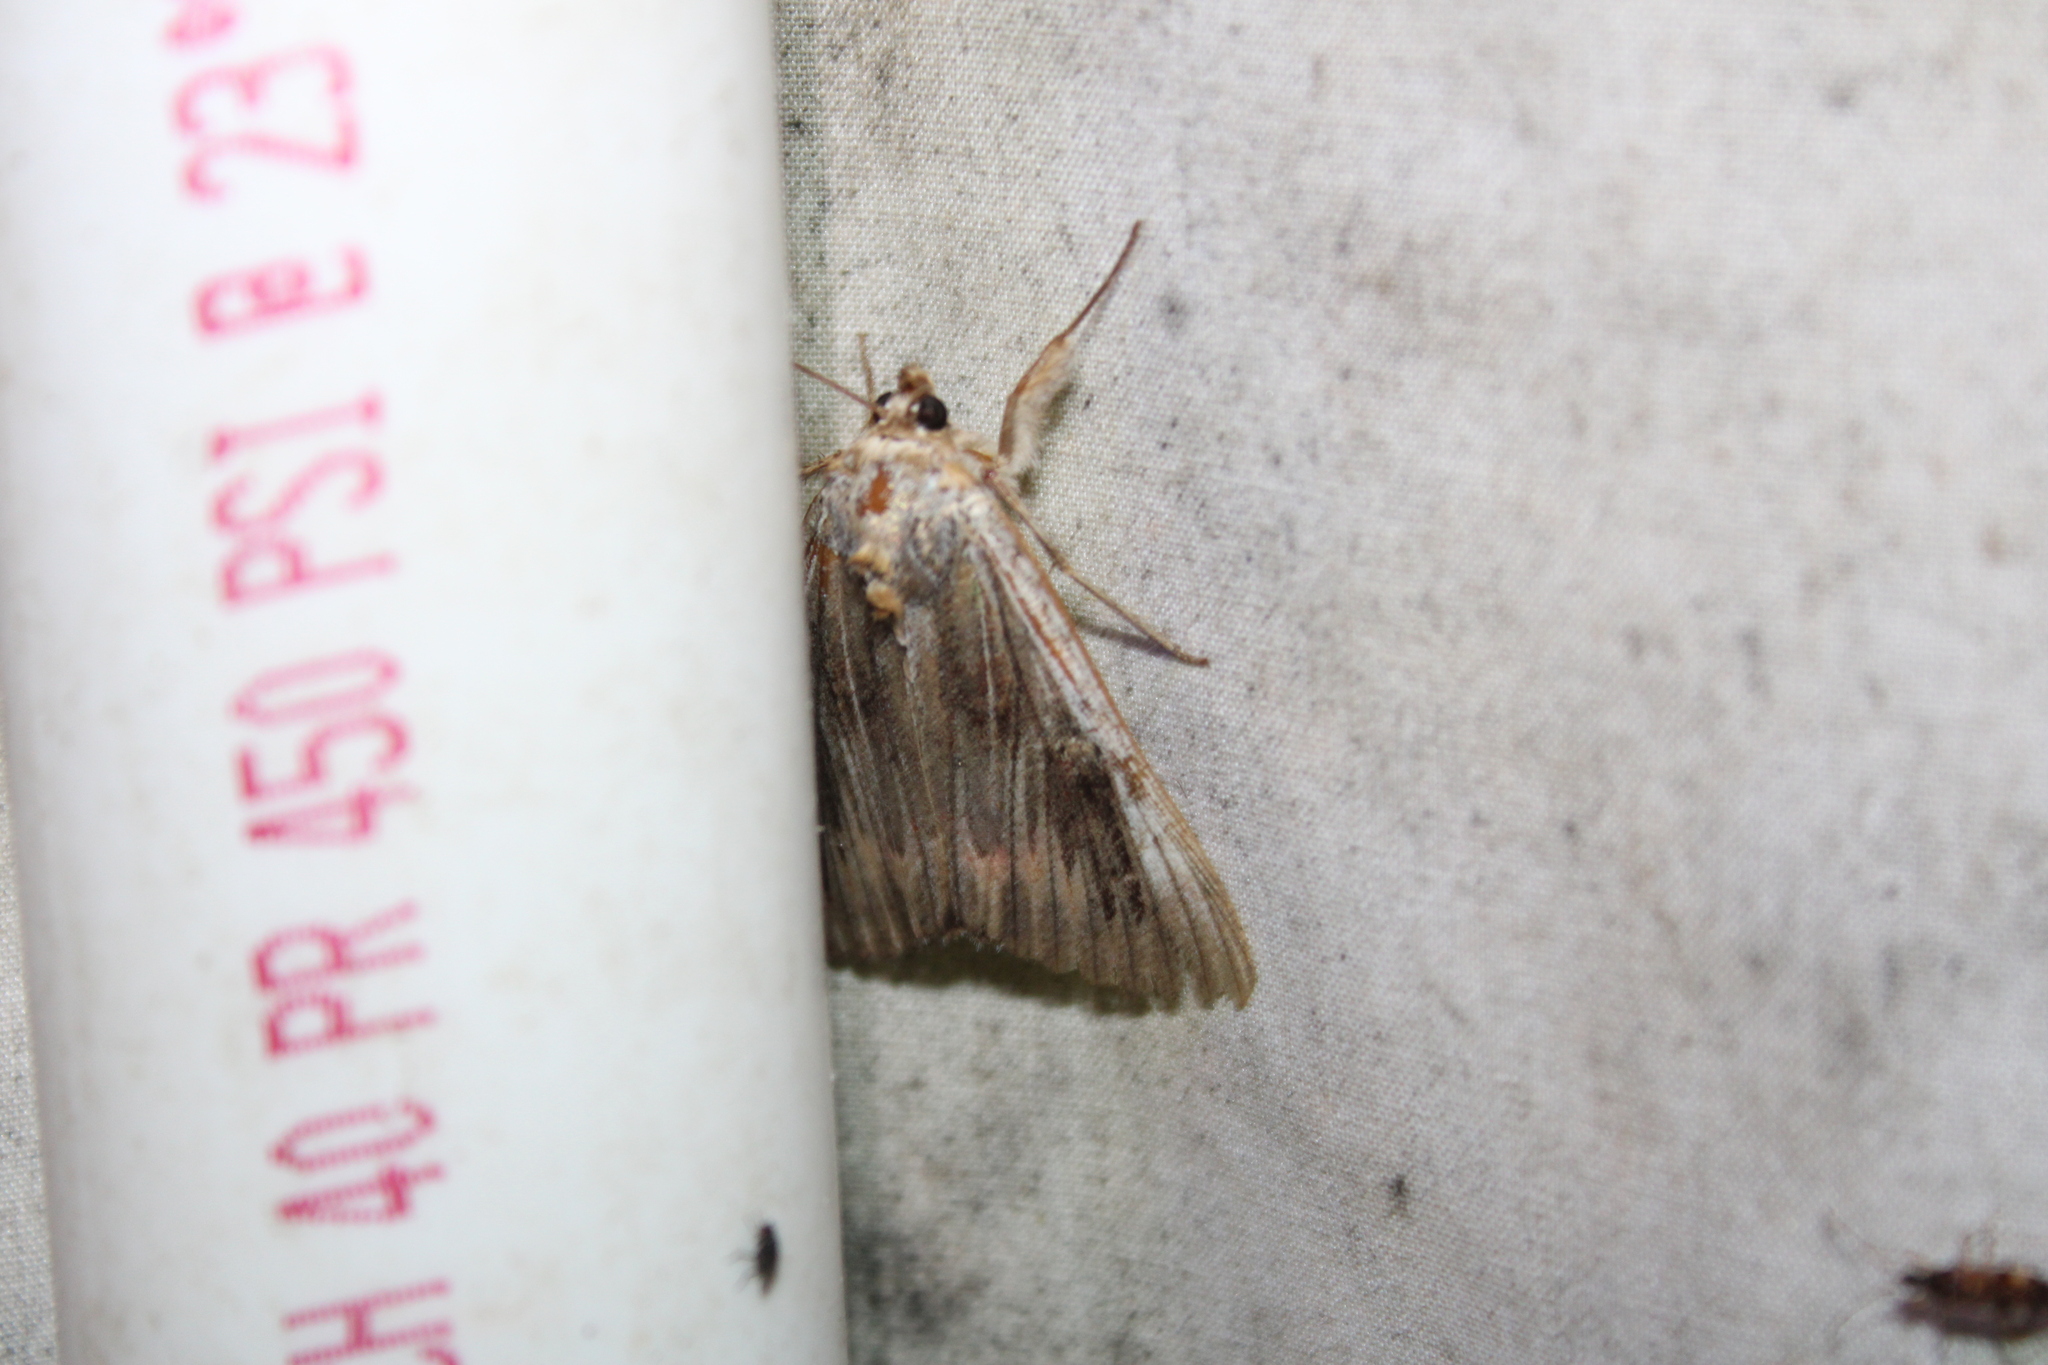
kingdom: Animalia
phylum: Arthropoda
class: Insecta
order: Lepidoptera
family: Erebidae
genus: Catocala
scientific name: Catocala herodias
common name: Pine barrens underwing
